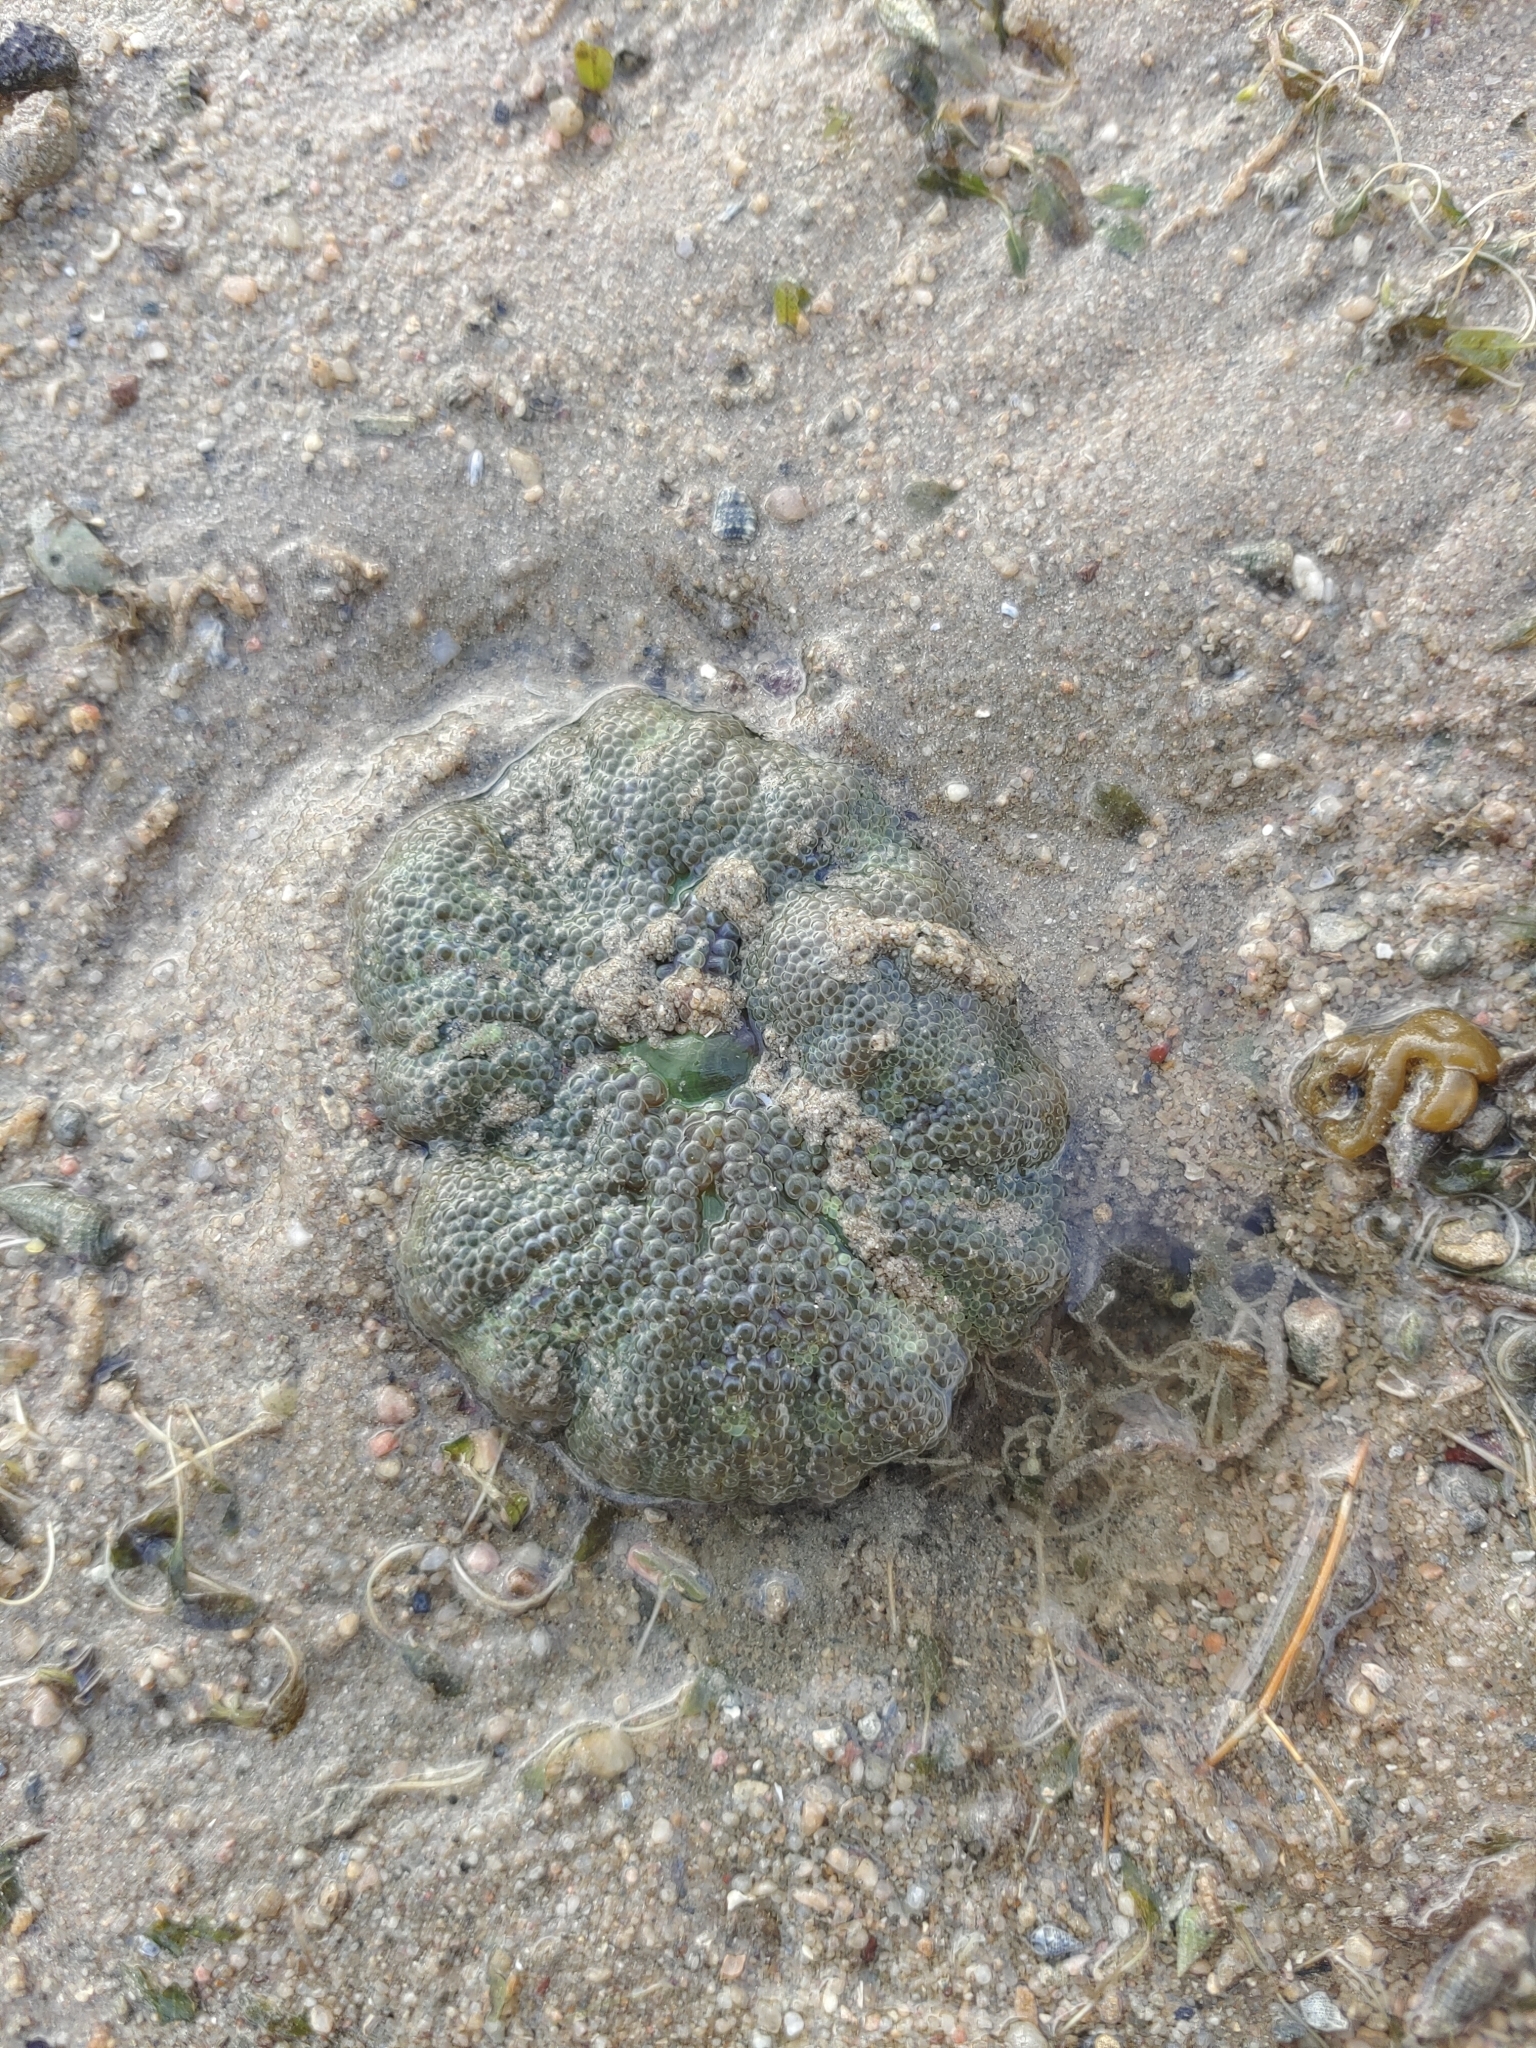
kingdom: Animalia
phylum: Cnidaria
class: Anthozoa
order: Actiniaria
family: Stichodactylidae
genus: Stichodactyla
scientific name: Stichodactyla haddoni
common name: Haddon's sea anemone
